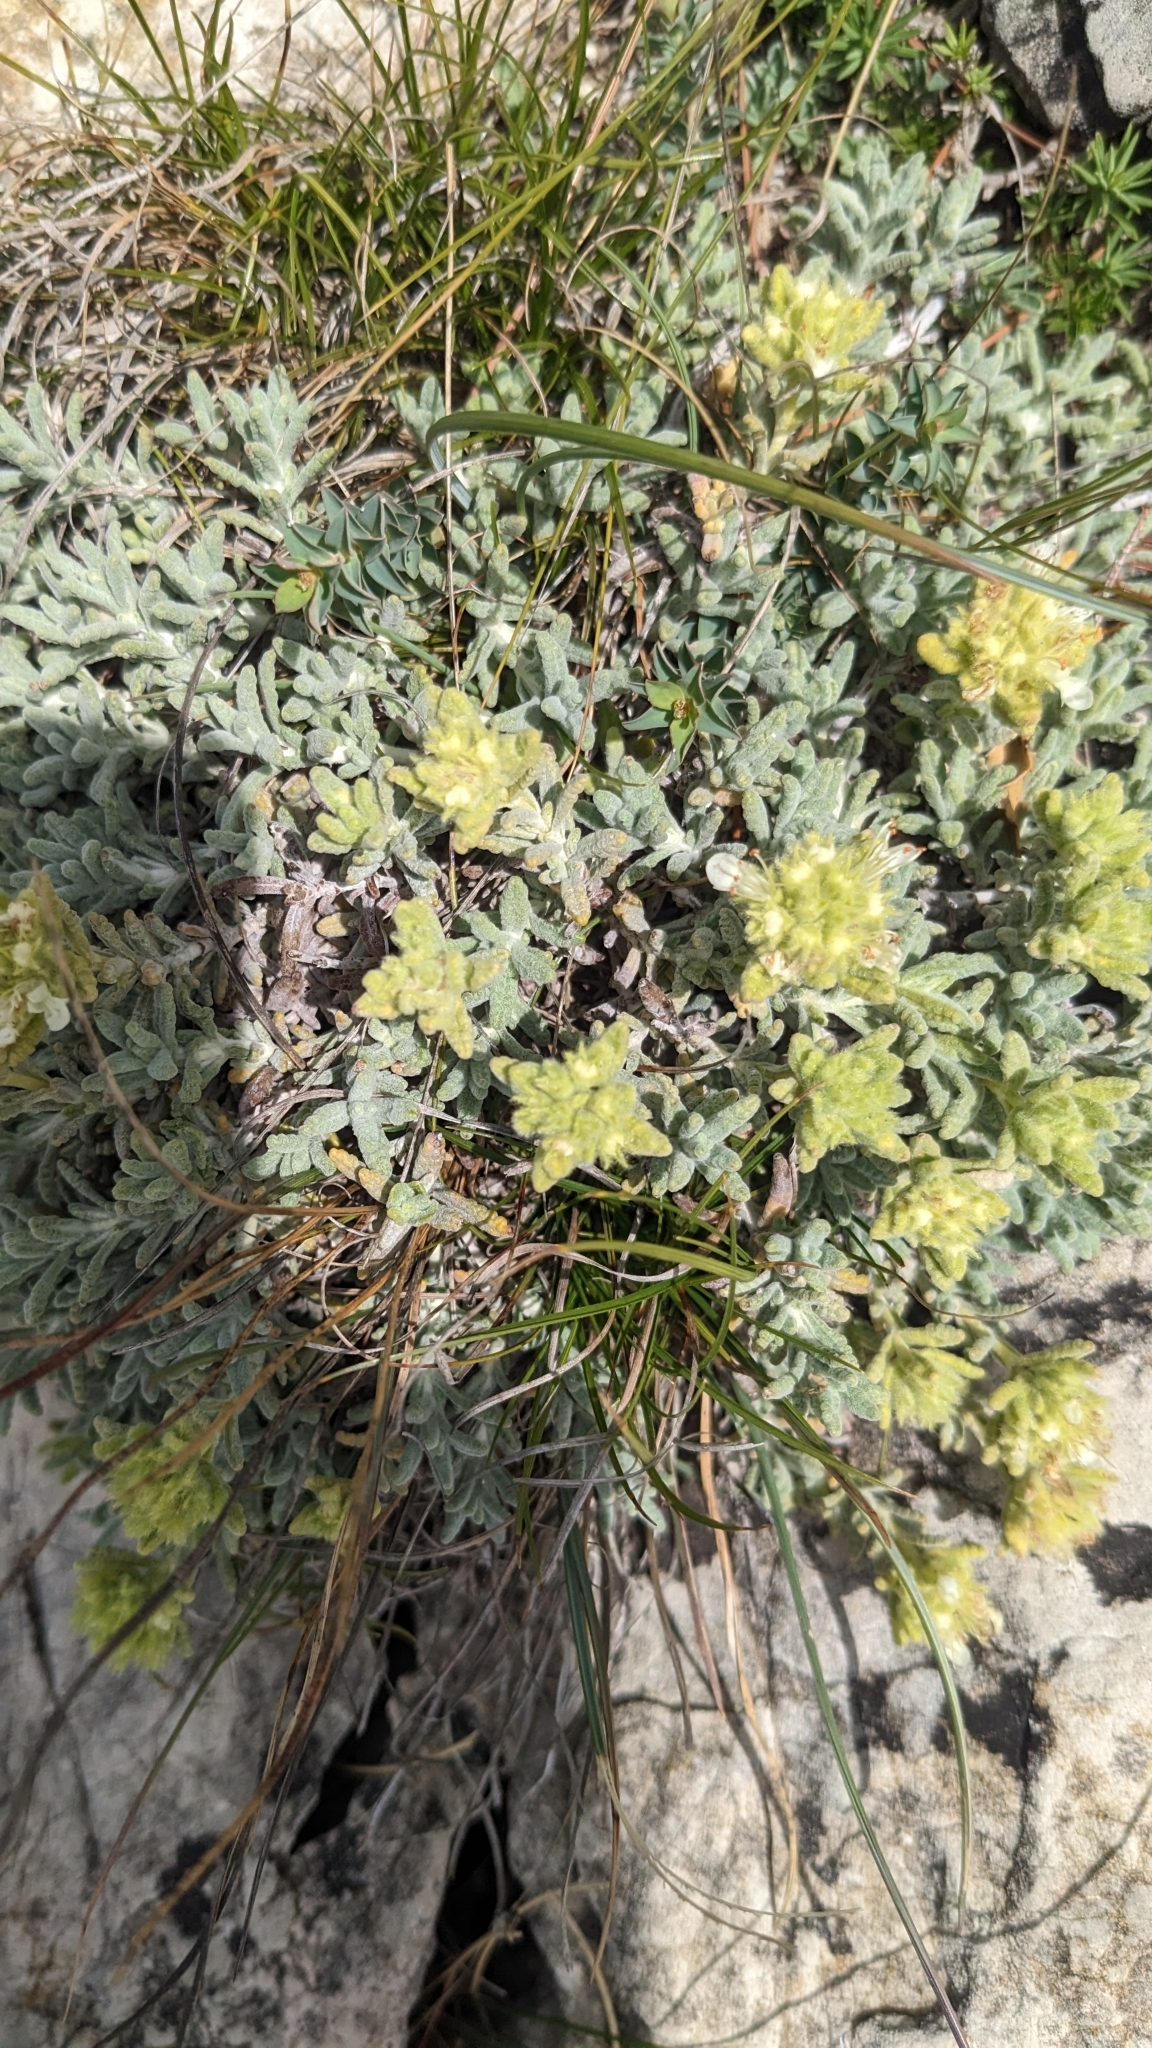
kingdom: Plantae
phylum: Tracheophyta
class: Magnoliopsida
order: Lamiales
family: Lamiaceae
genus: Teucrium
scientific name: Teucrium aureum
